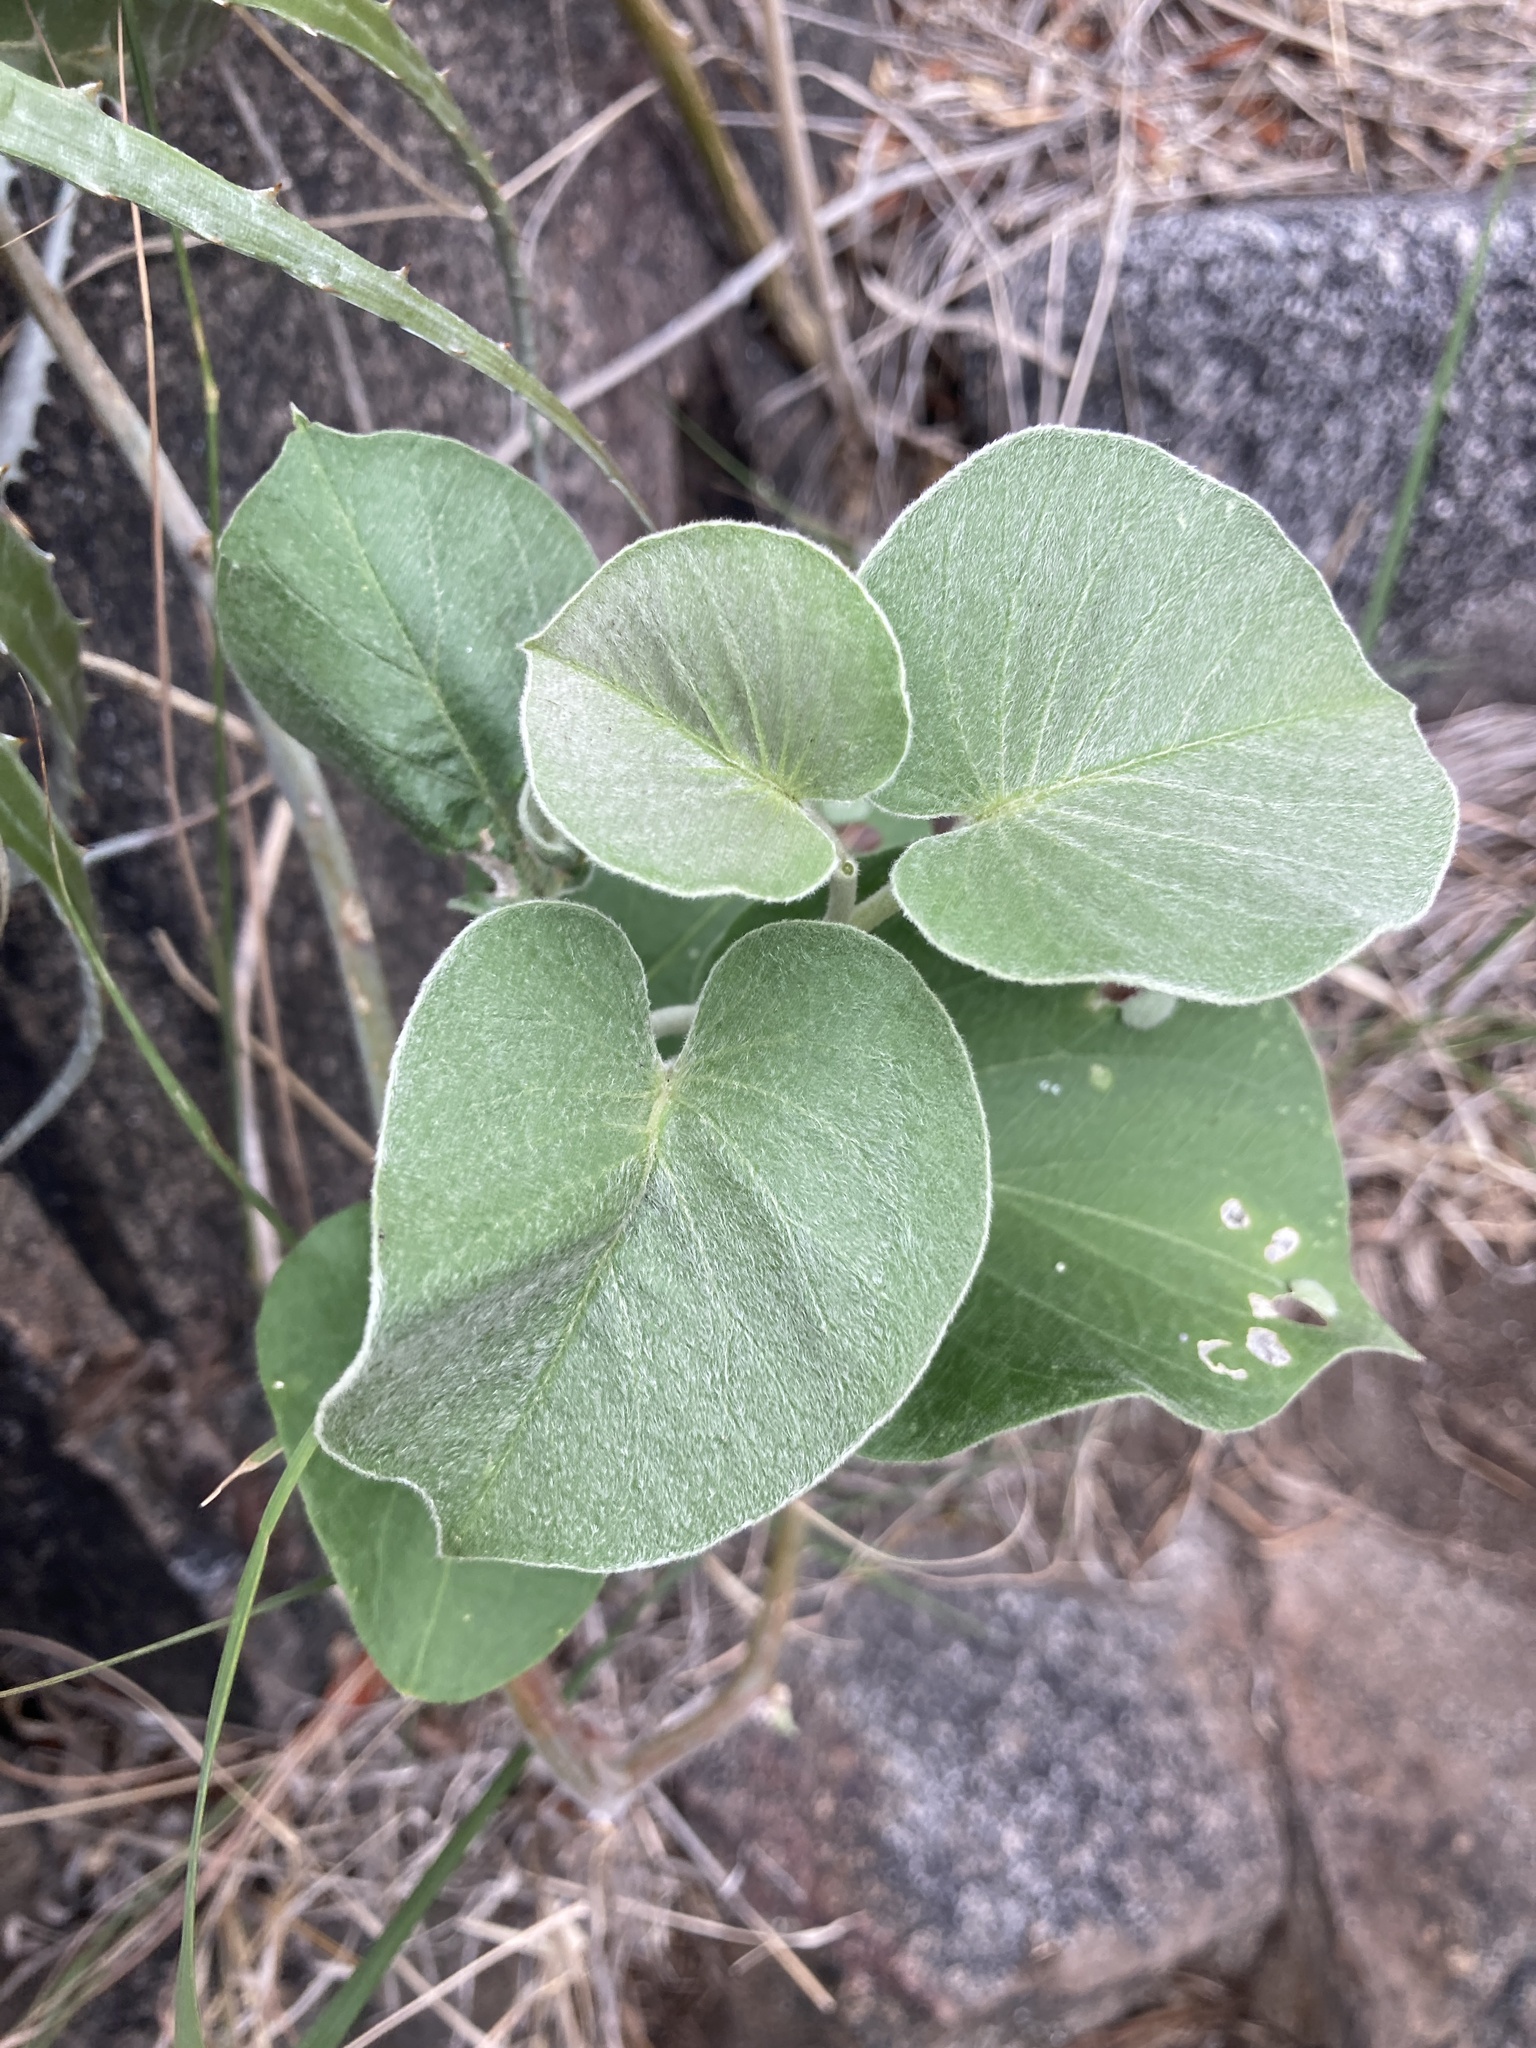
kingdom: Plantae
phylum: Tracheophyta
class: Magnoliopsida
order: Solanales
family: Convolvulaceae
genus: Ipomoea
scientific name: Ipomoea hieronymi
